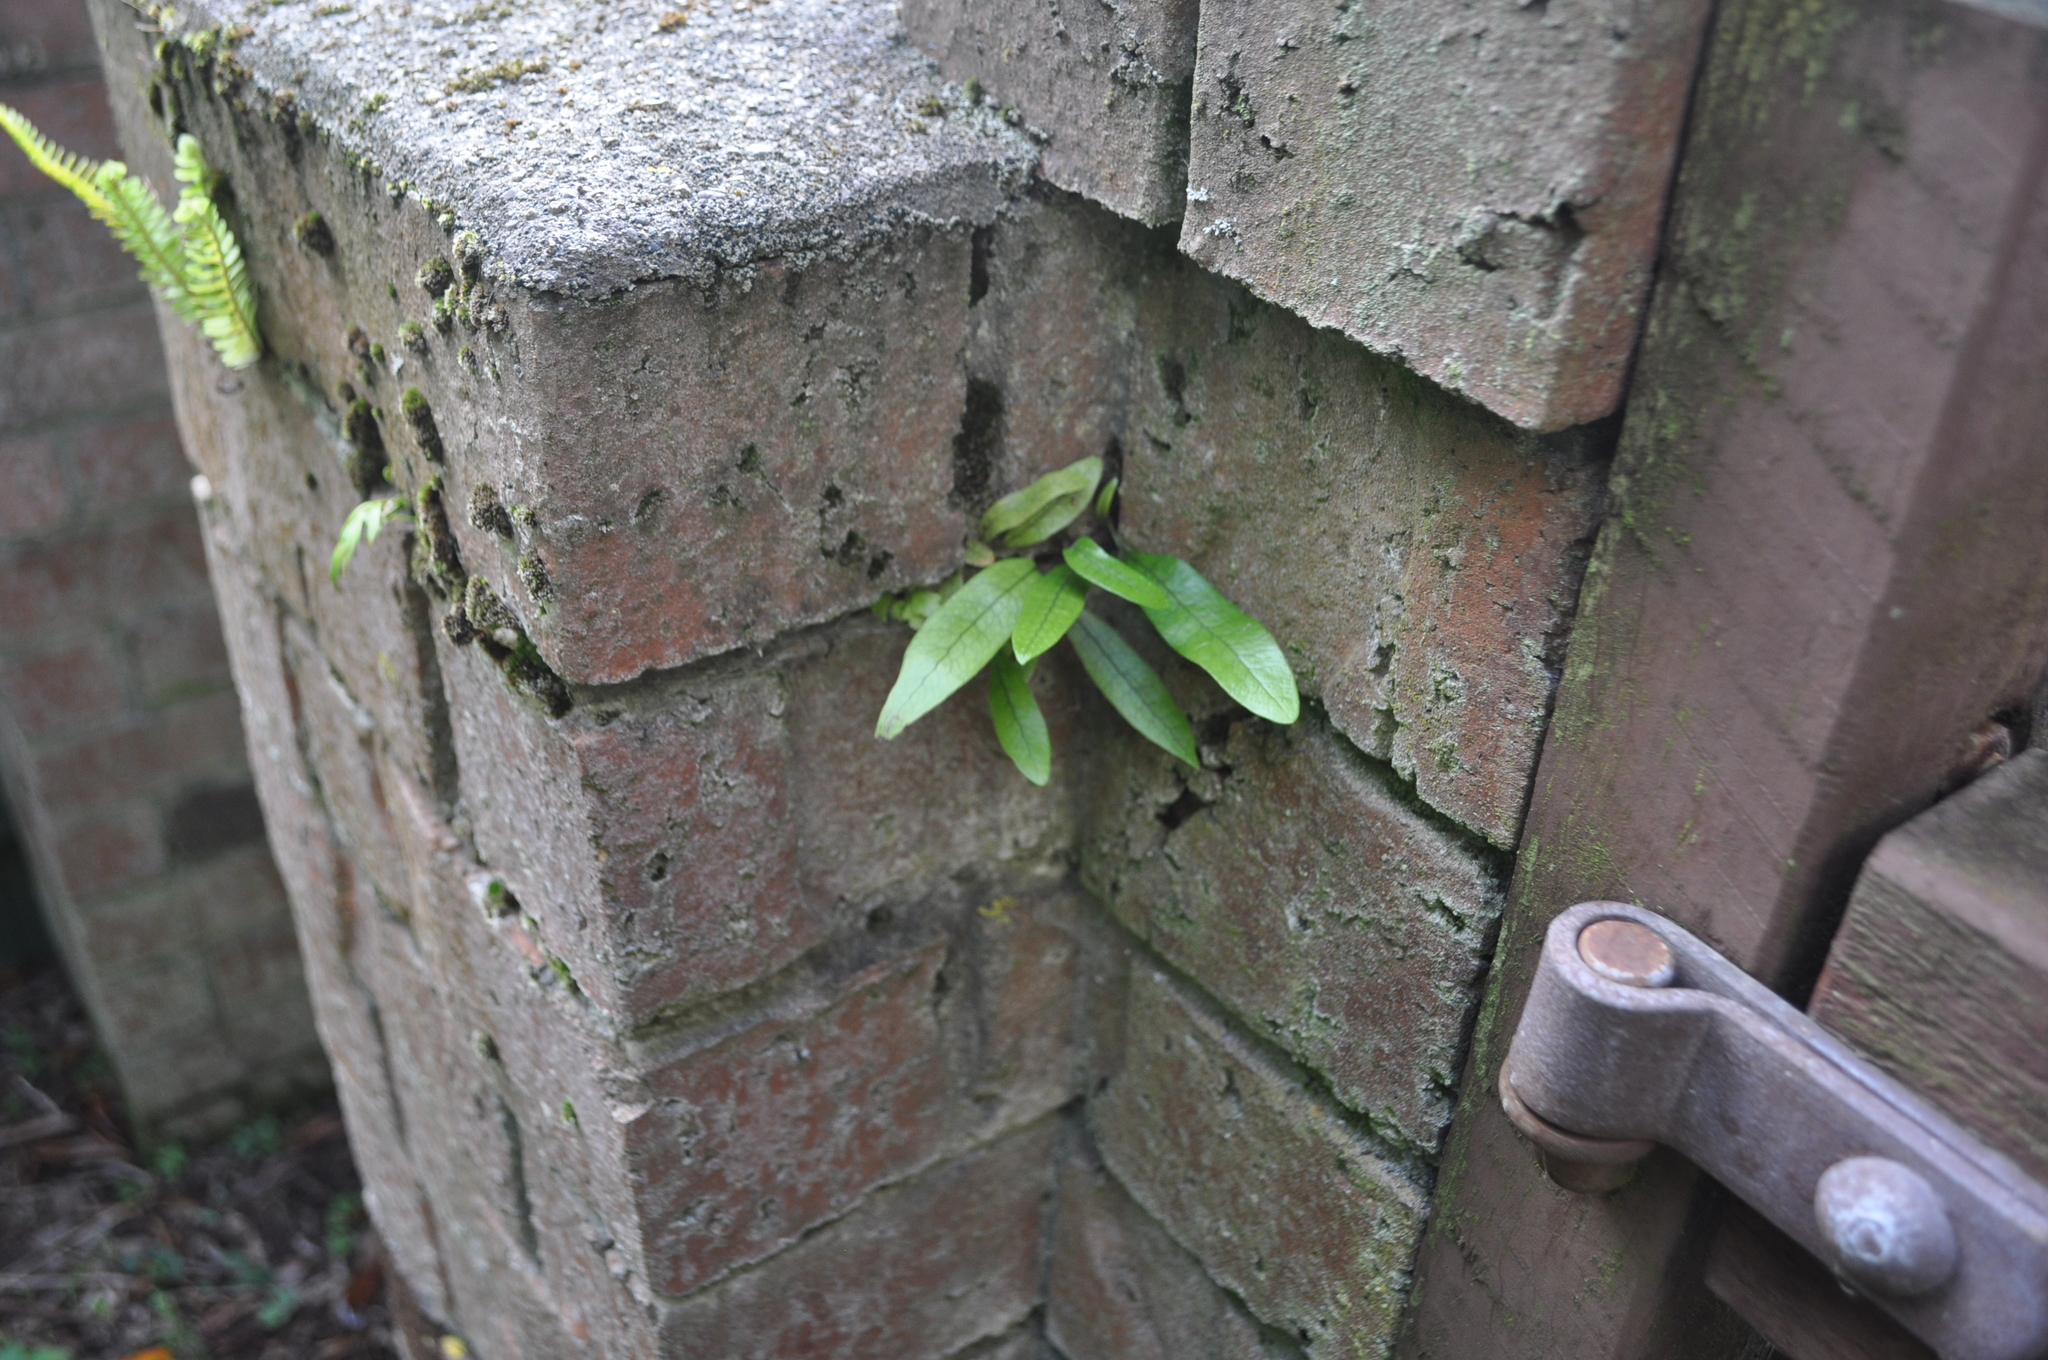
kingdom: Plantae
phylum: Tracheophyta
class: Polypodiopsida
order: Polypodiales
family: Polypodiaceae
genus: Lecanopteris
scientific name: Lecanopteris pustulata
